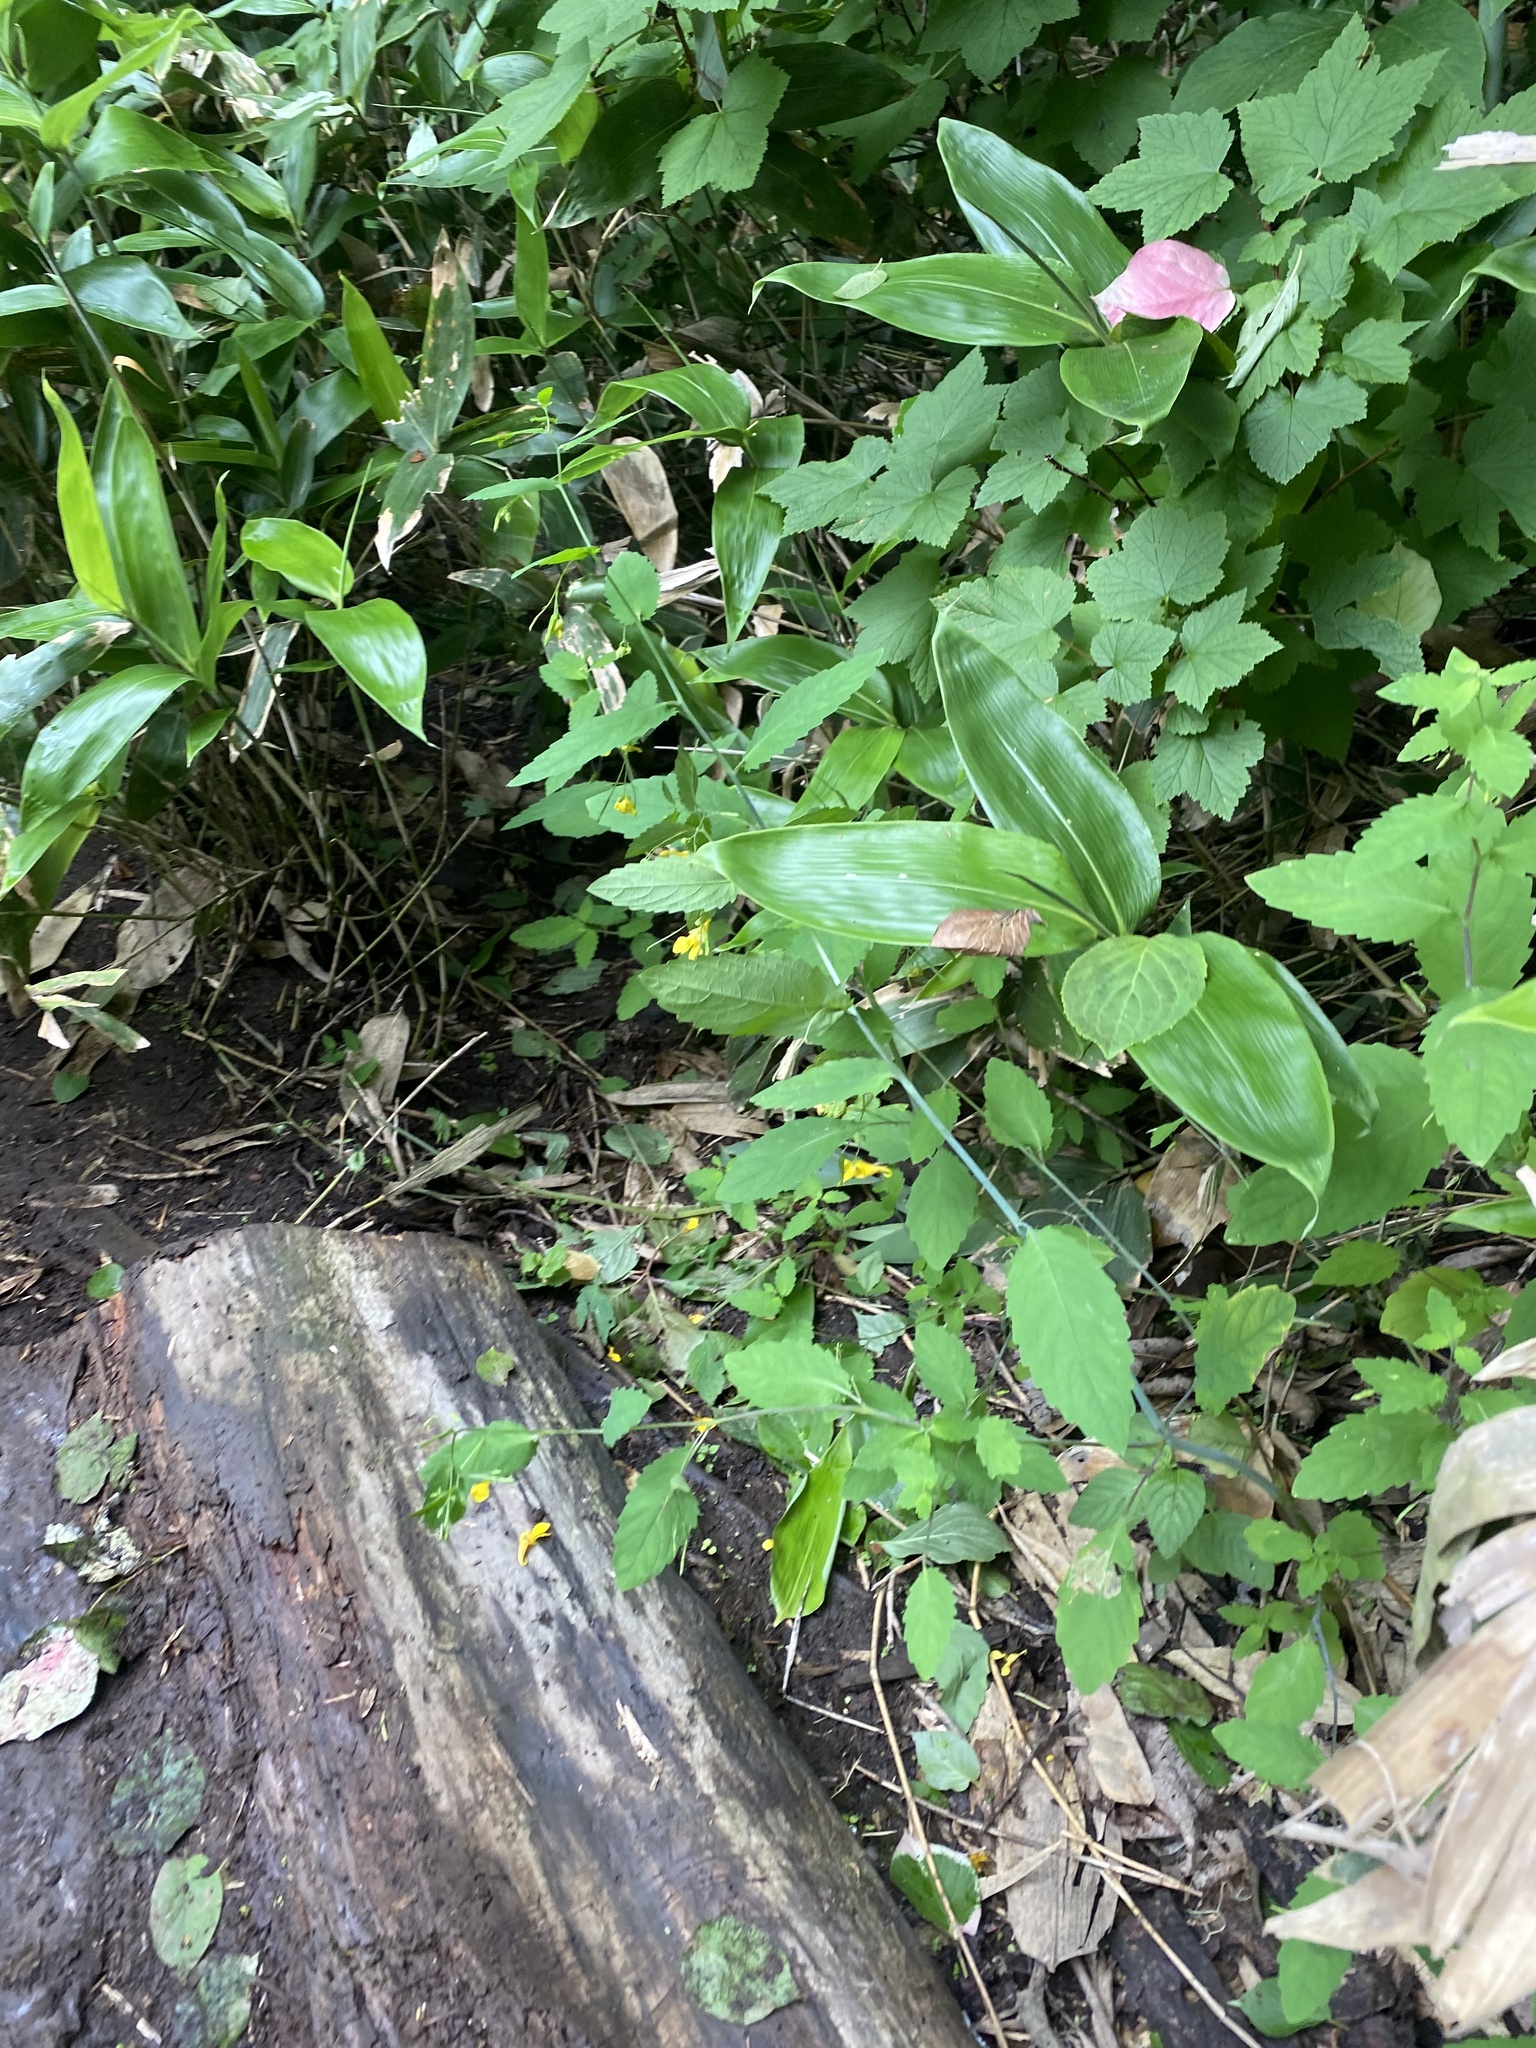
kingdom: Plantae
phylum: Tracheophyta
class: Magnoliopsida
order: Ericales
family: Balsaminaceae
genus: Impatiens
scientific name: Impatiens noli-tangere
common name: Touch-me-not balsam
